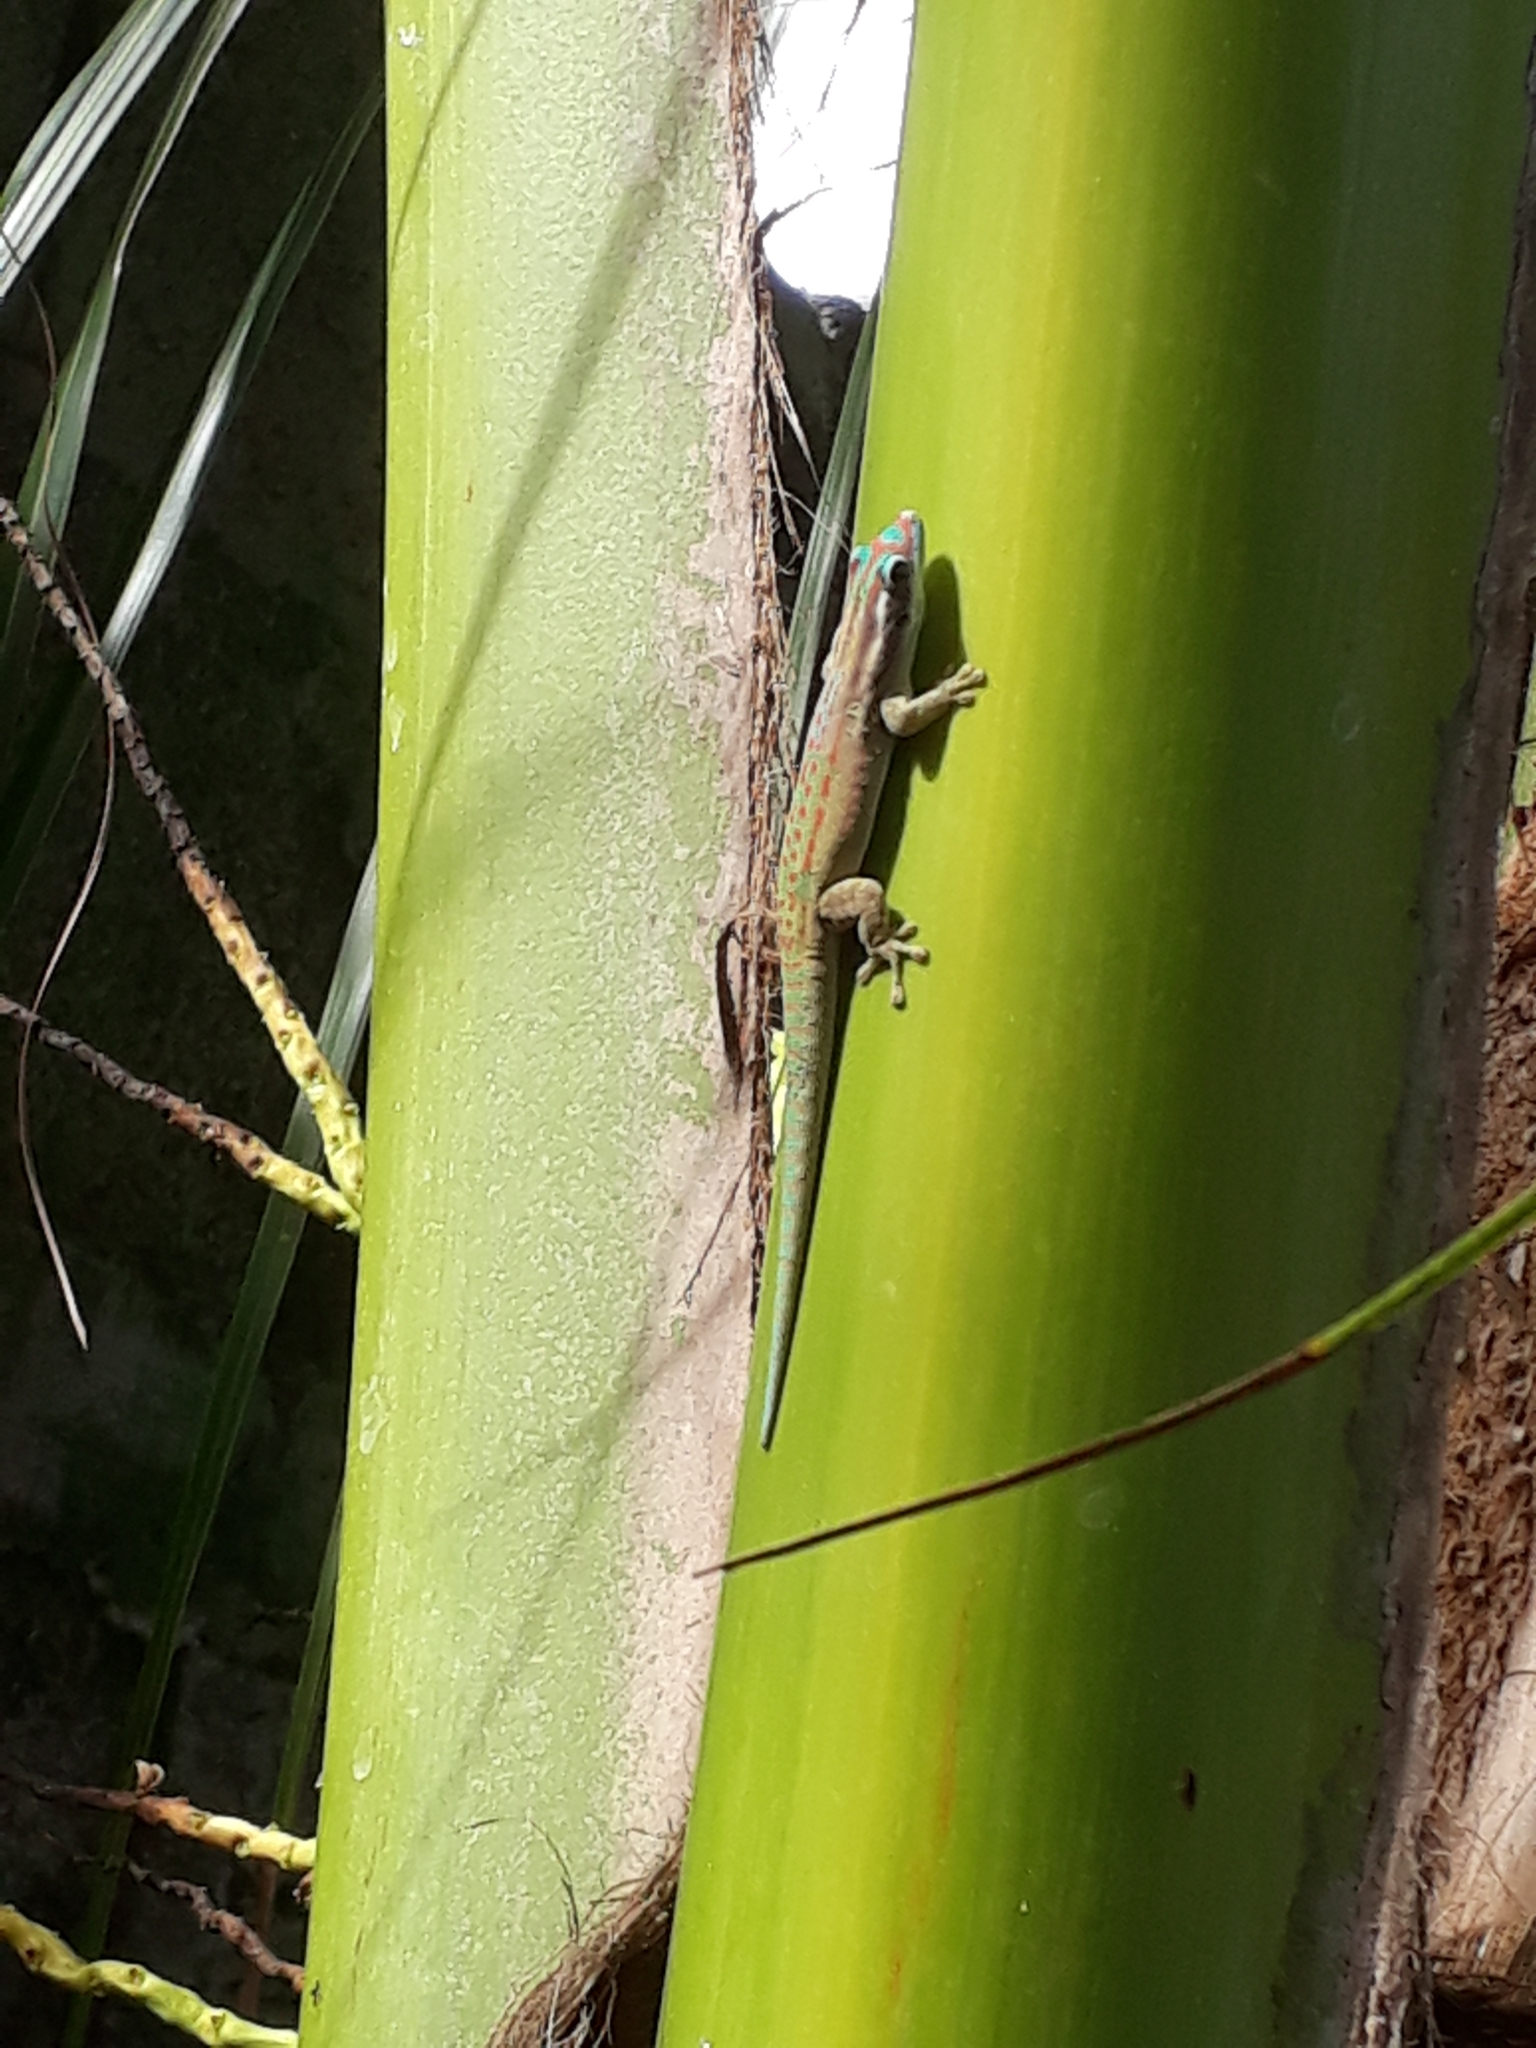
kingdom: Animalia
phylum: Chordata
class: Squamata
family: Gekkonidae
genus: Phelsuma
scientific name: Phelsuma ornata
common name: Ornate day gecko
